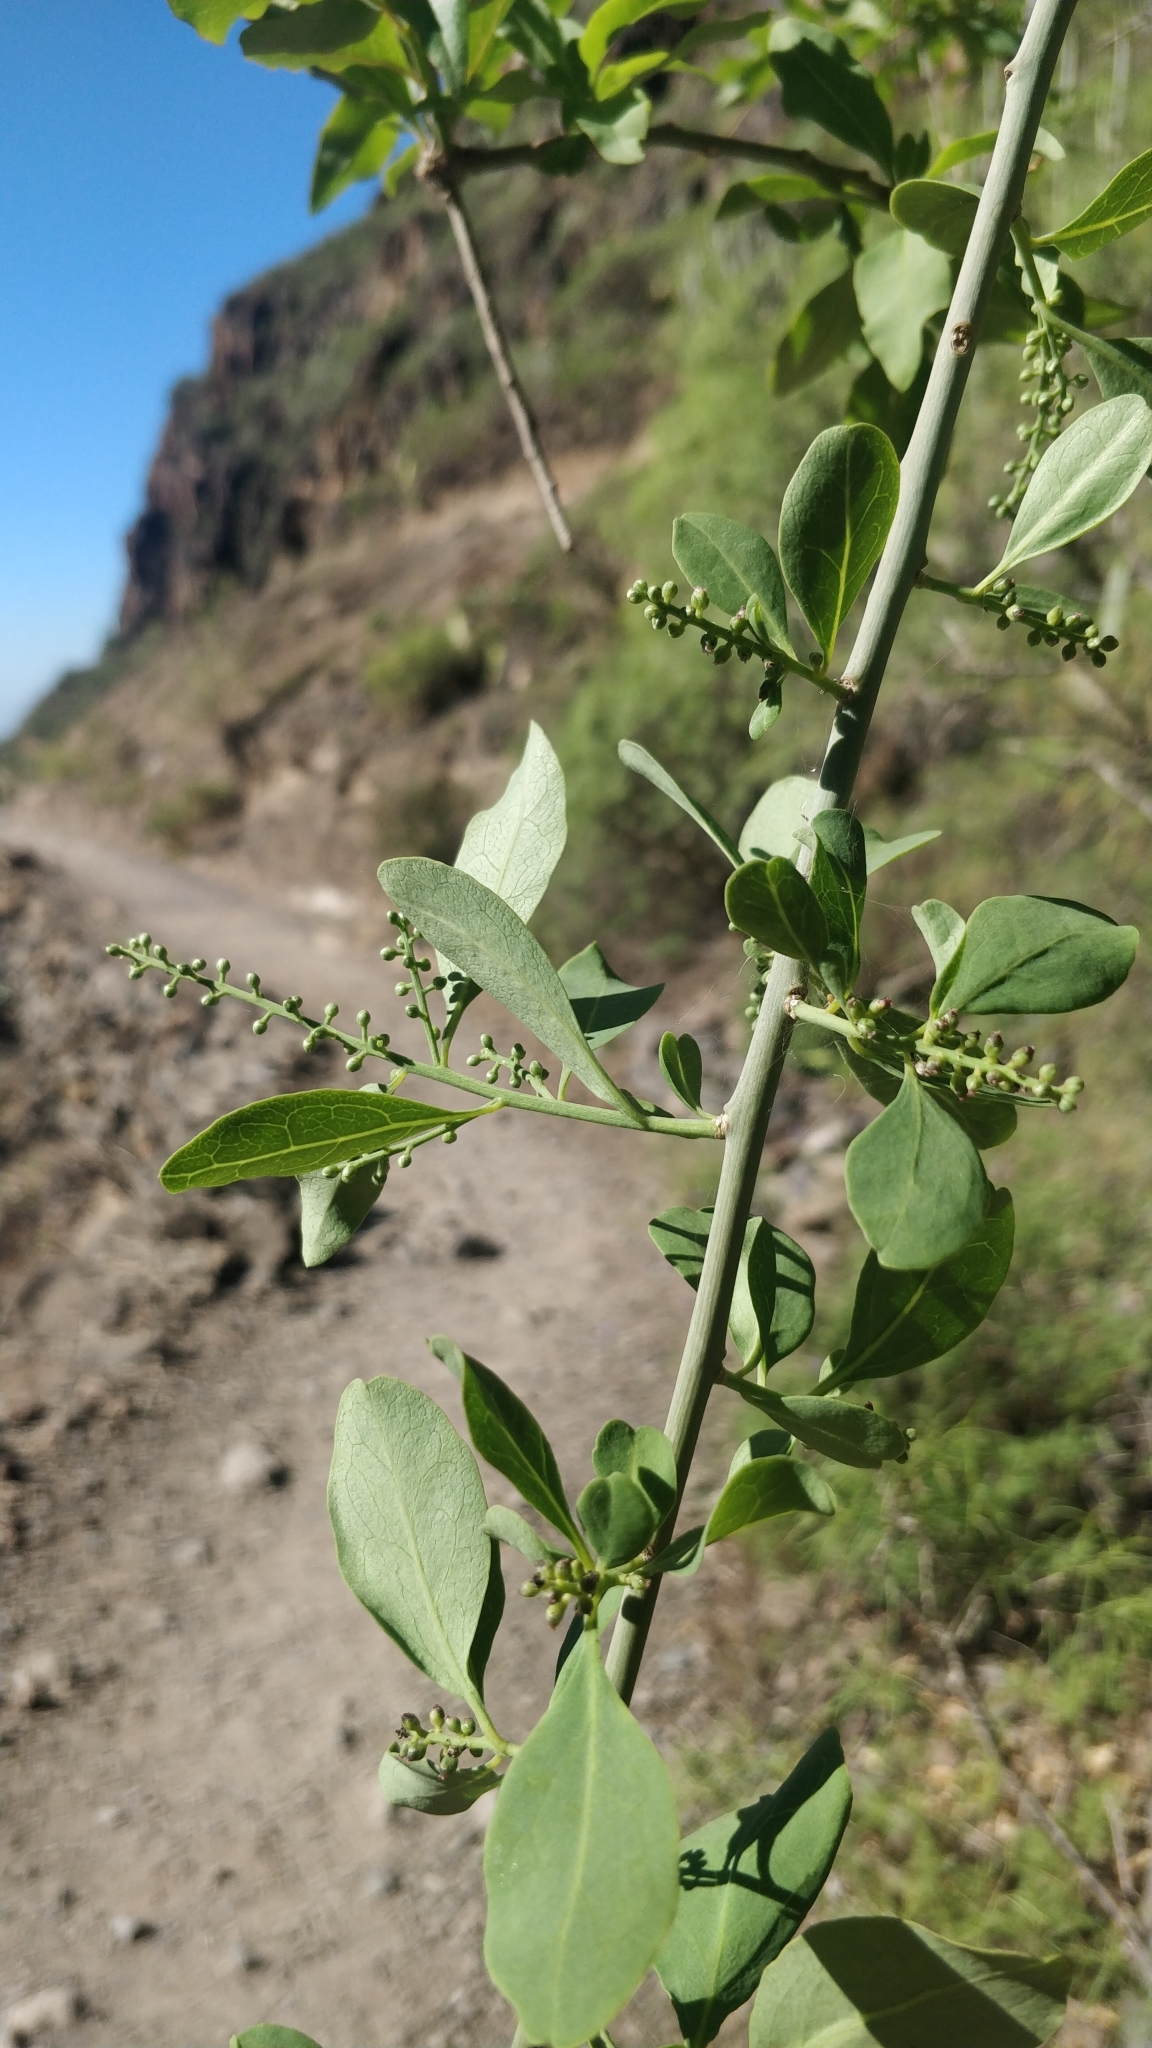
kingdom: Plantae
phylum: Tracheophyta
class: Magnoliopsida
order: Caryophyllales
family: Amaranthaceae
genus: Bosea
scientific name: Bosea yervamora
